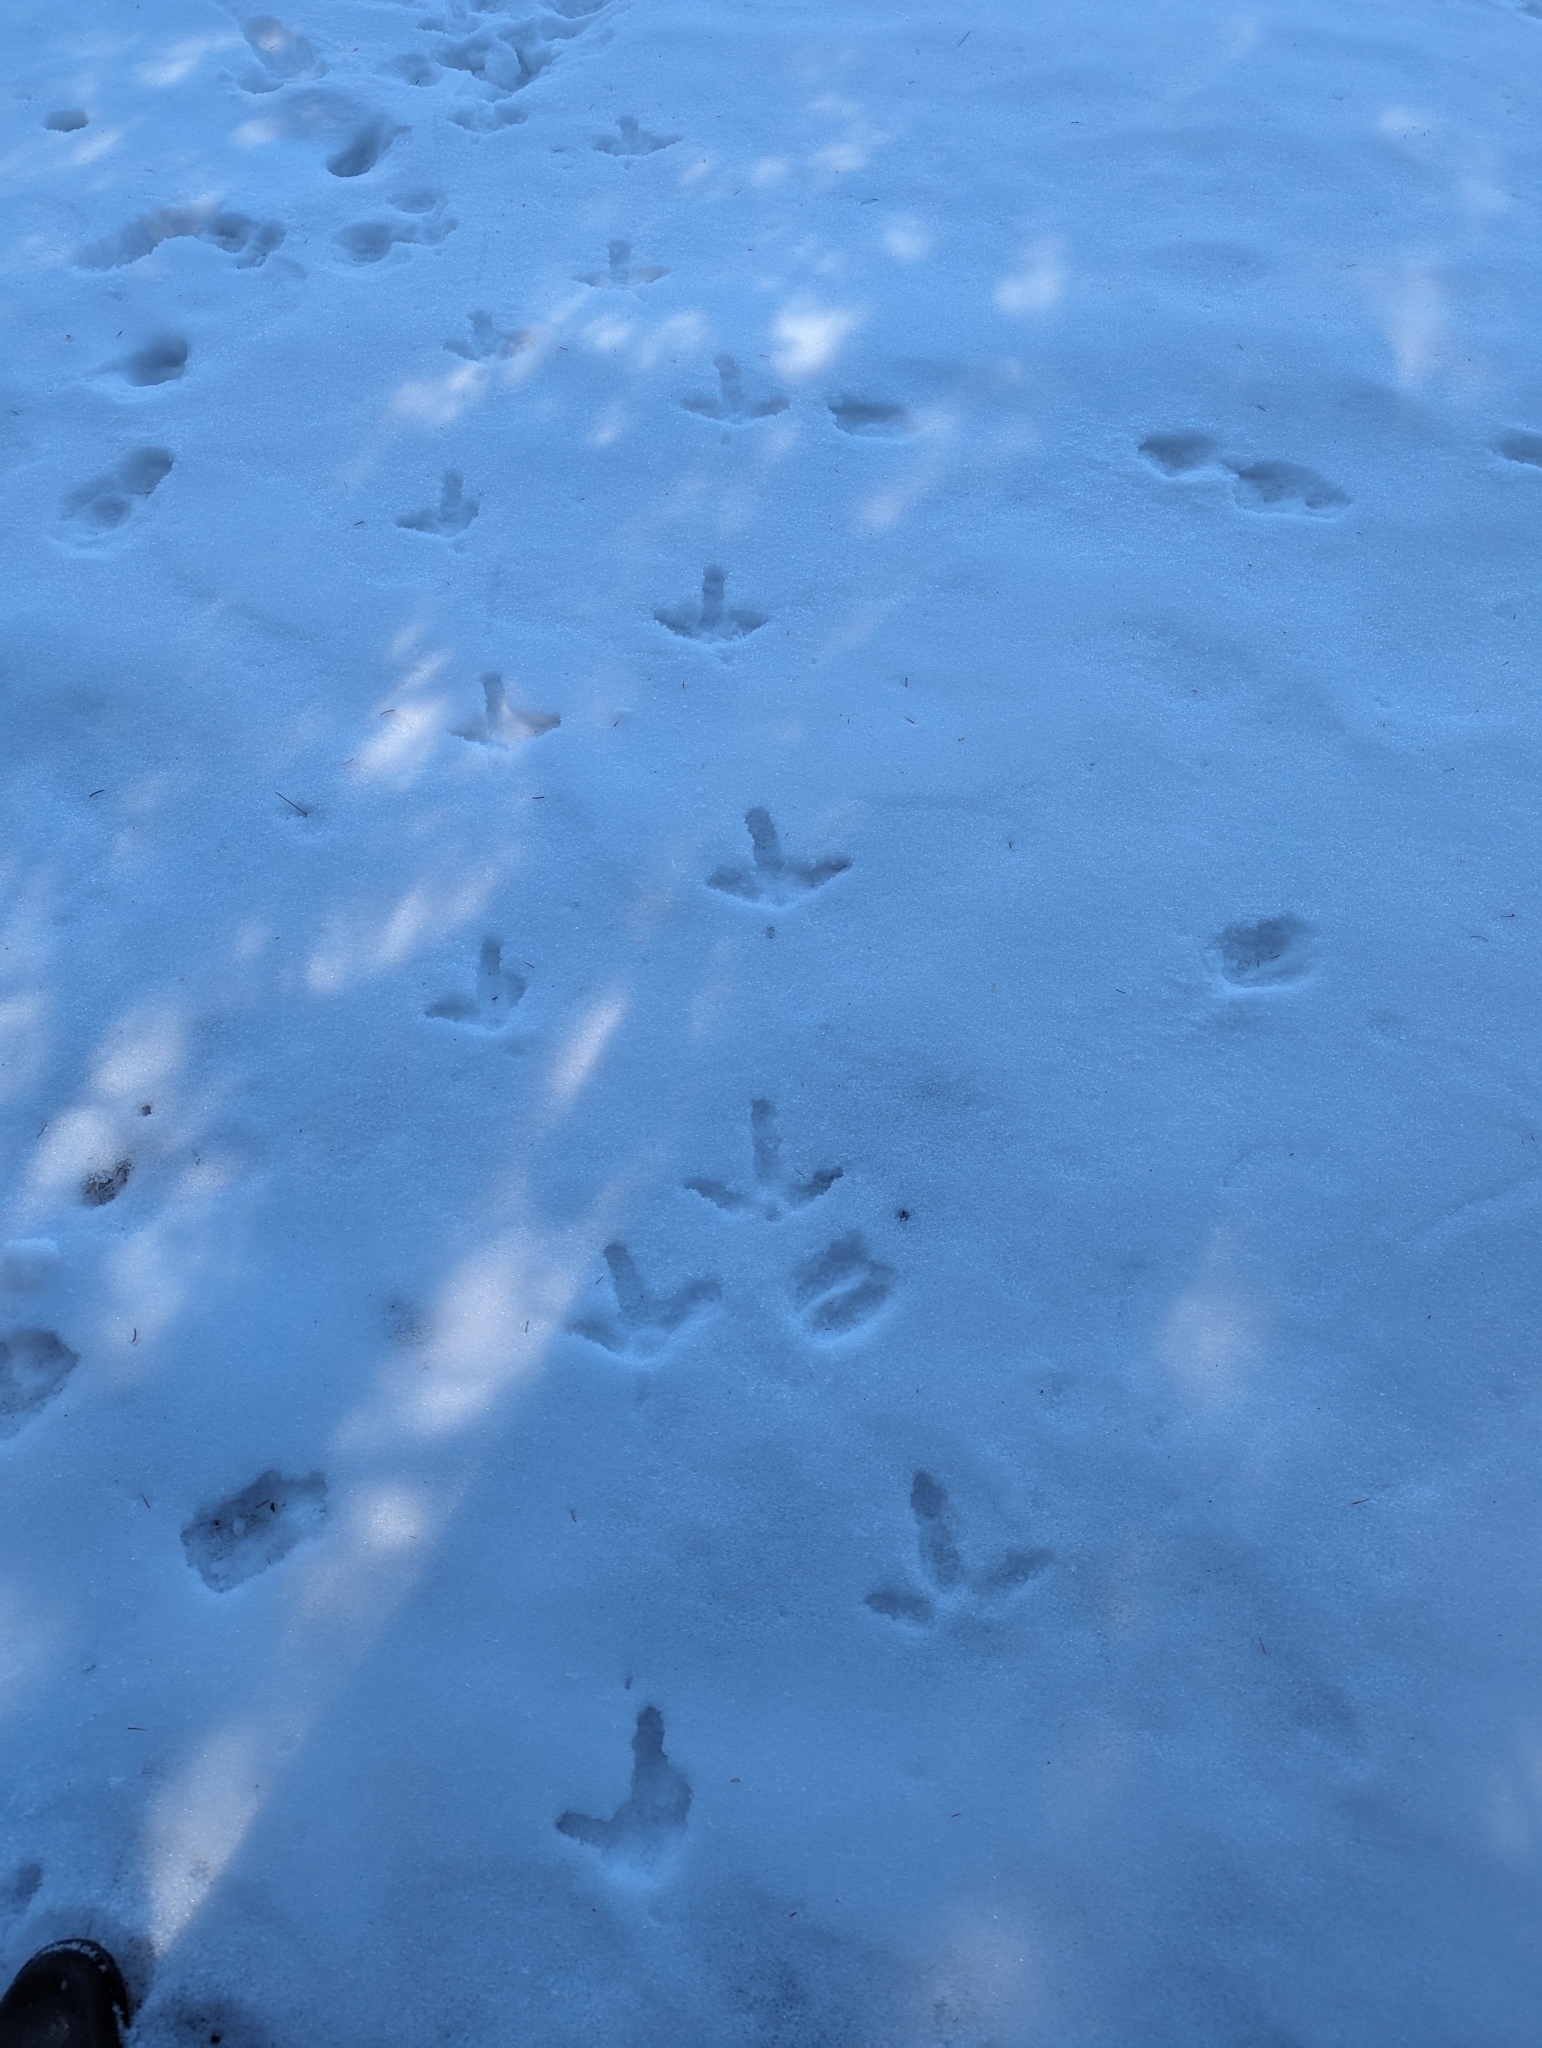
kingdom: Animalia
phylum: Chordata
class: Aves
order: Galliformes
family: Phasianidae
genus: Meleagris
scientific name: Meleagris gallopavo
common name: Wild turkey
